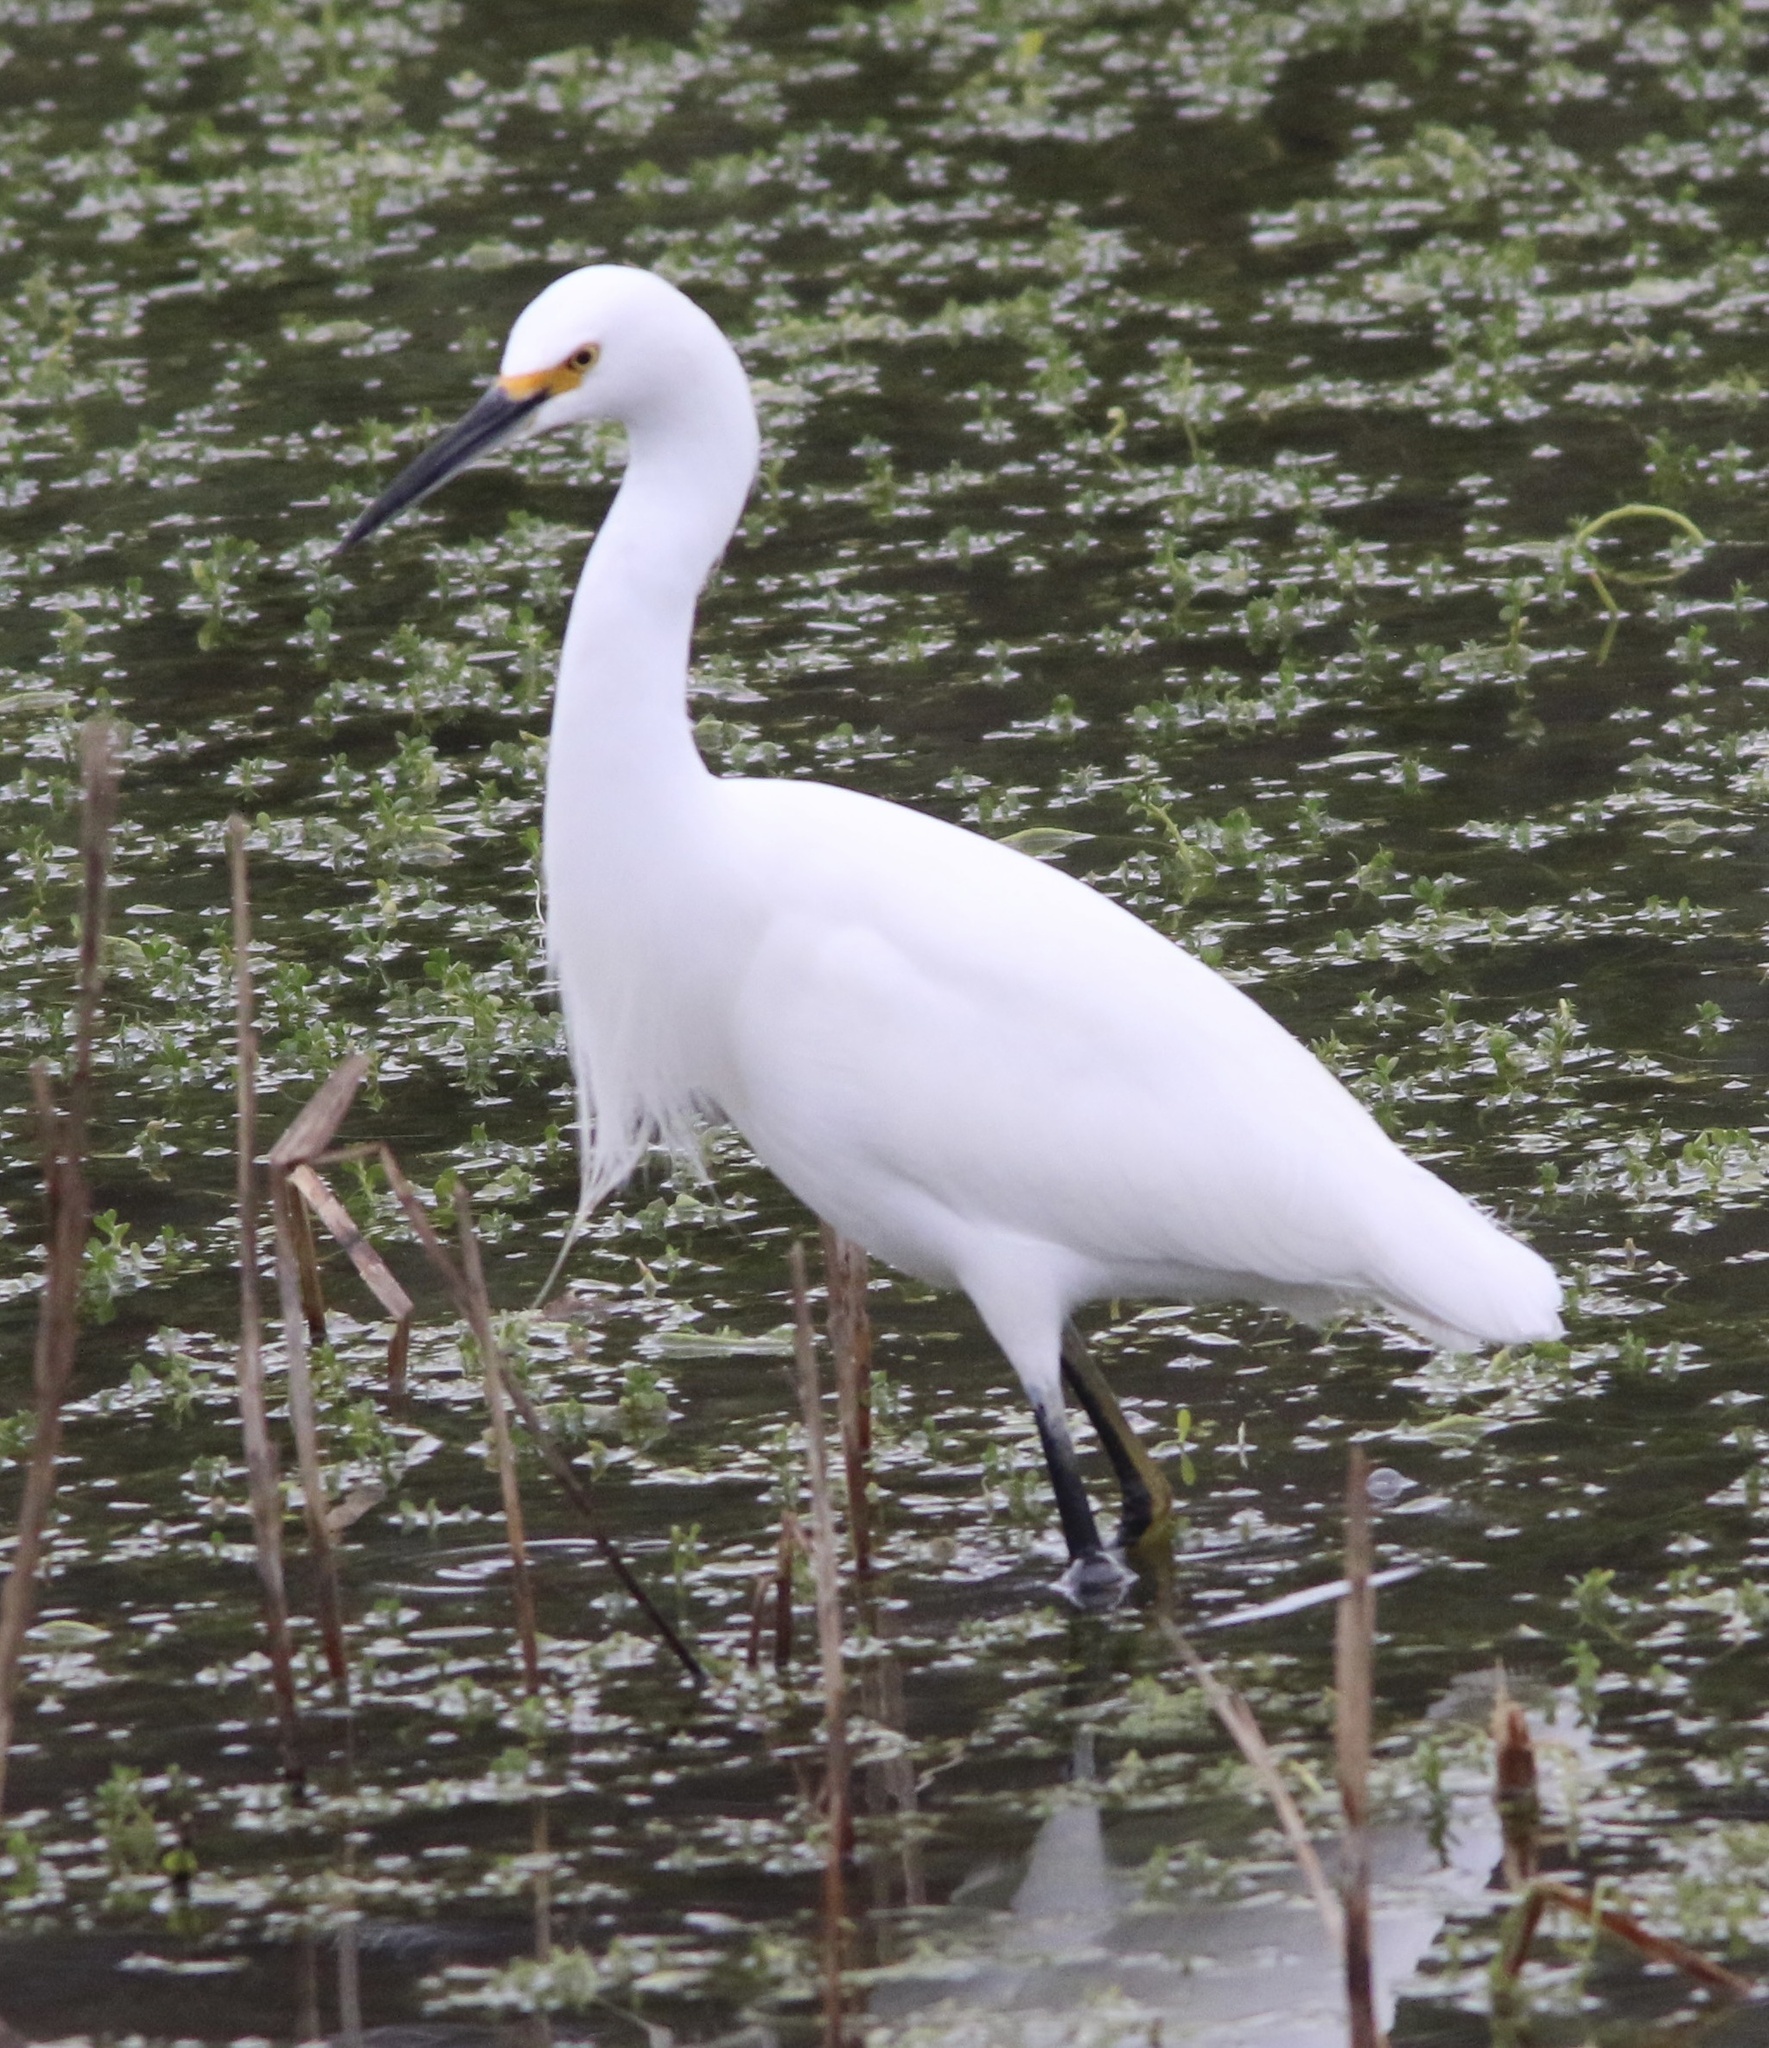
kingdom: Animalia
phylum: Chordata
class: Aves
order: Pelecaniformes
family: Ardeidae
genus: Egretta
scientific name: Egretta thula
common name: Snowy egret
